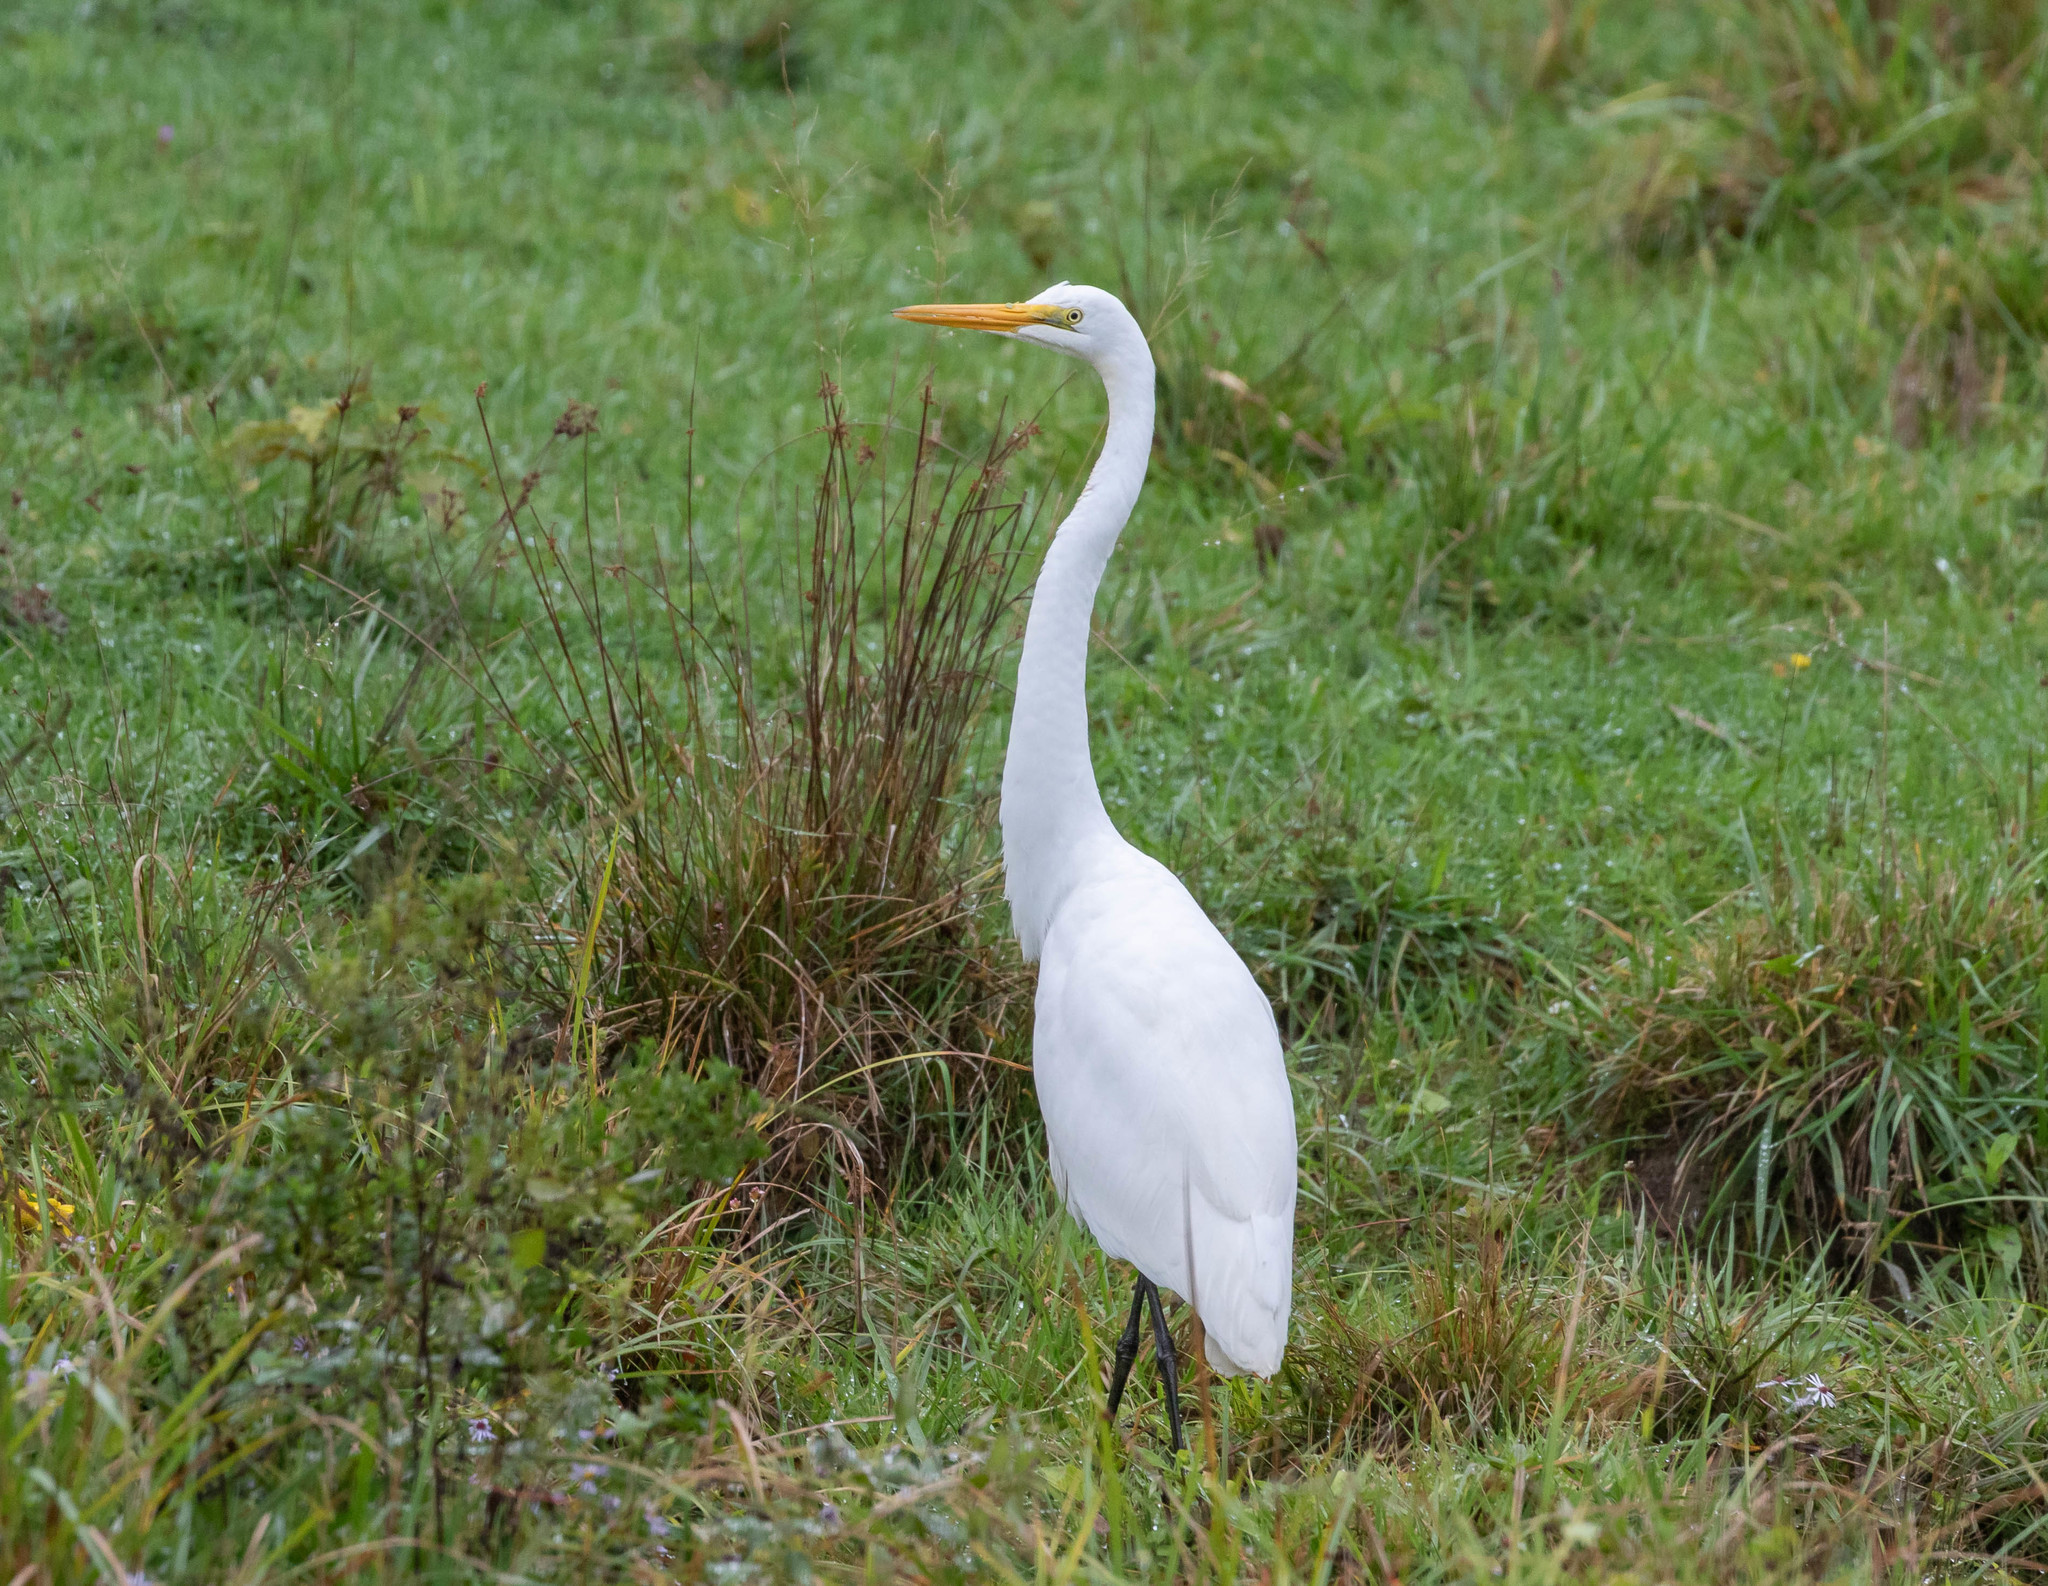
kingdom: Animalia
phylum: Chordata
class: Aves
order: Pelecaniformes
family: Ardeidae
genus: Ardea
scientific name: Ardea alba
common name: Great egret
